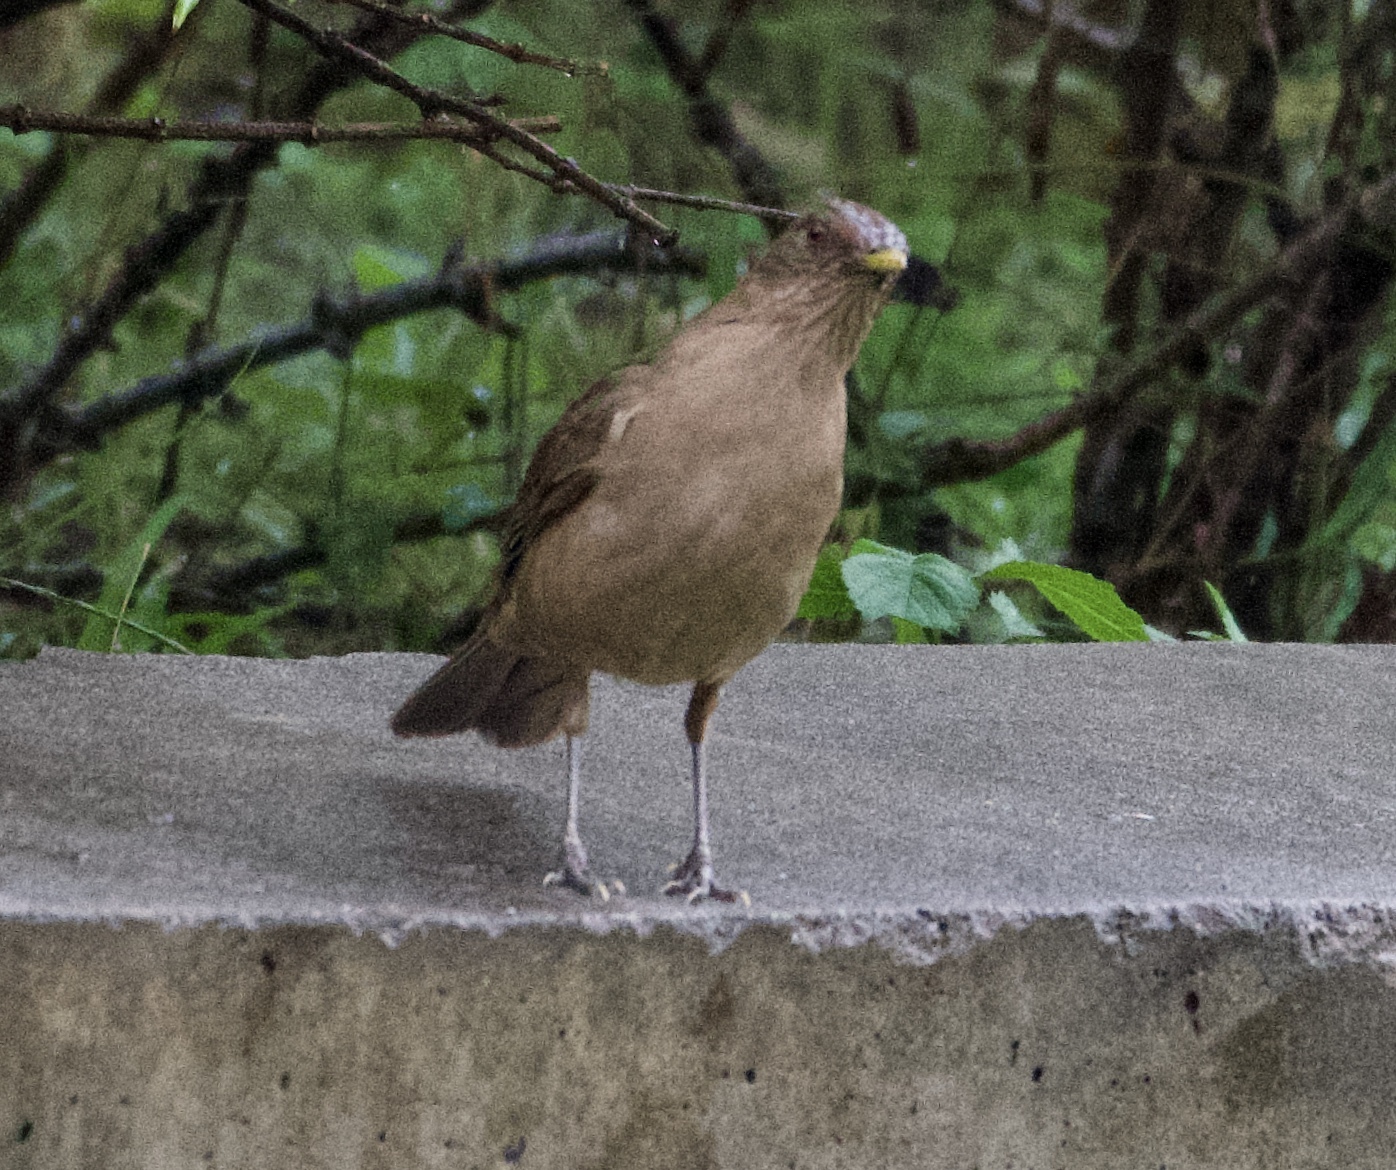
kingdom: Animalia
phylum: Chordata
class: Aves
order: Passeriformes
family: Turdidae
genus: Turdus
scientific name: Turdus grayi
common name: Clay-colored thrush
